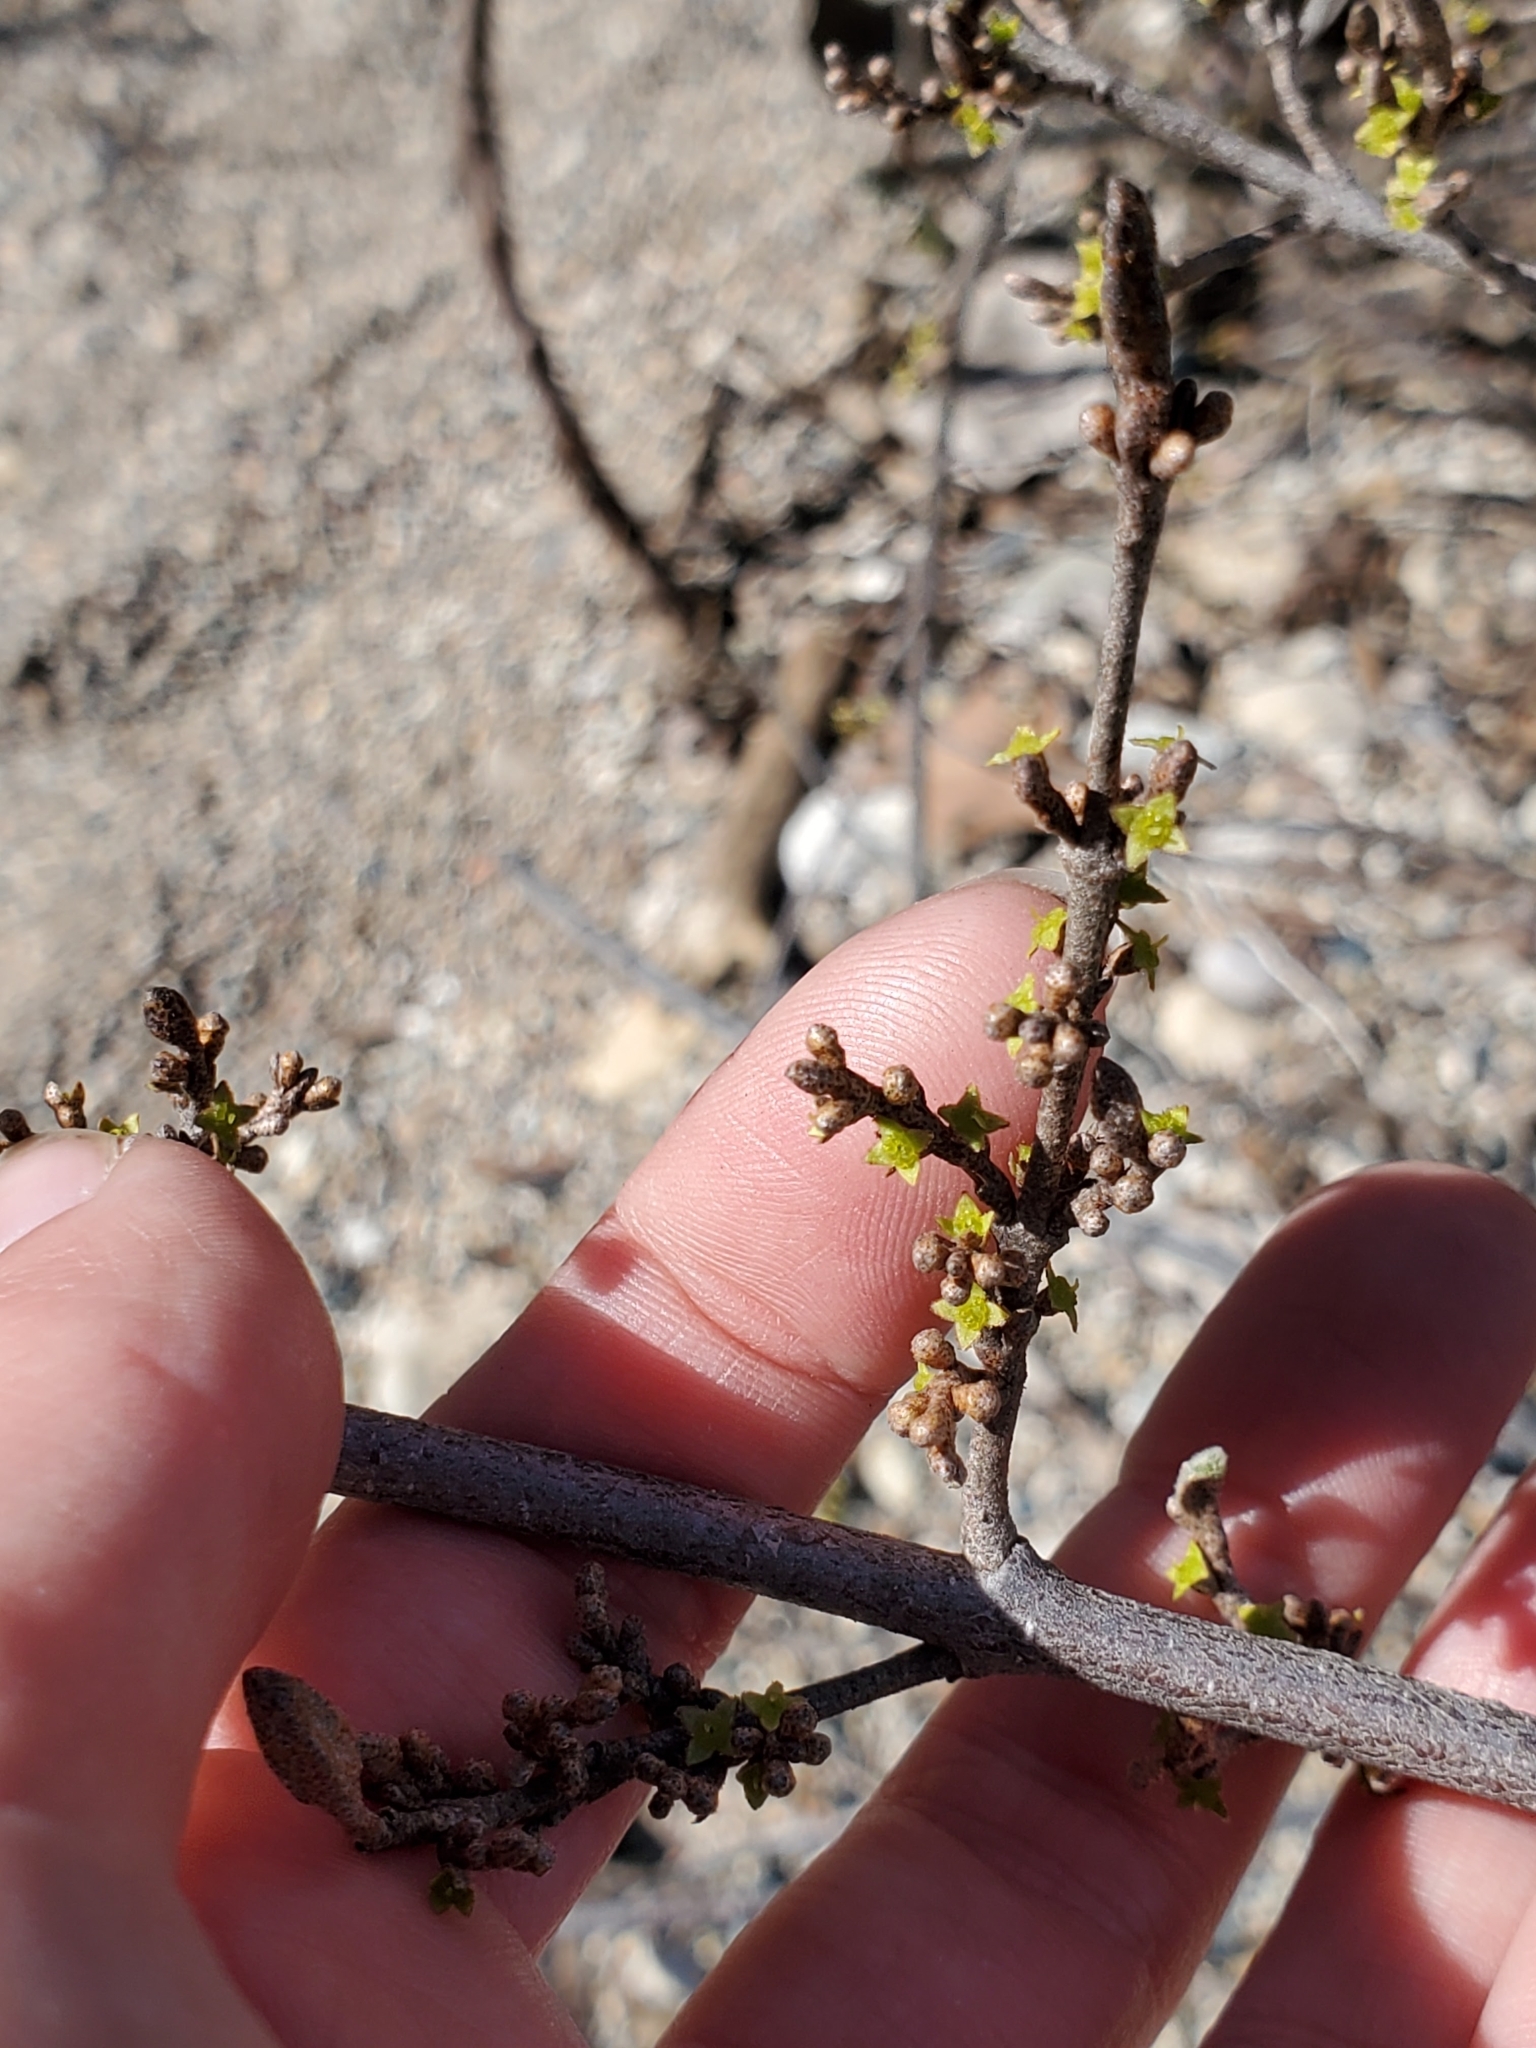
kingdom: Plantae
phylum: Tracheophyta
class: Magnoliopsida
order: Rosales
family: Elaeagnaceae
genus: Shepherdia
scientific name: Shepherdia canadensis
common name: Soapberry
